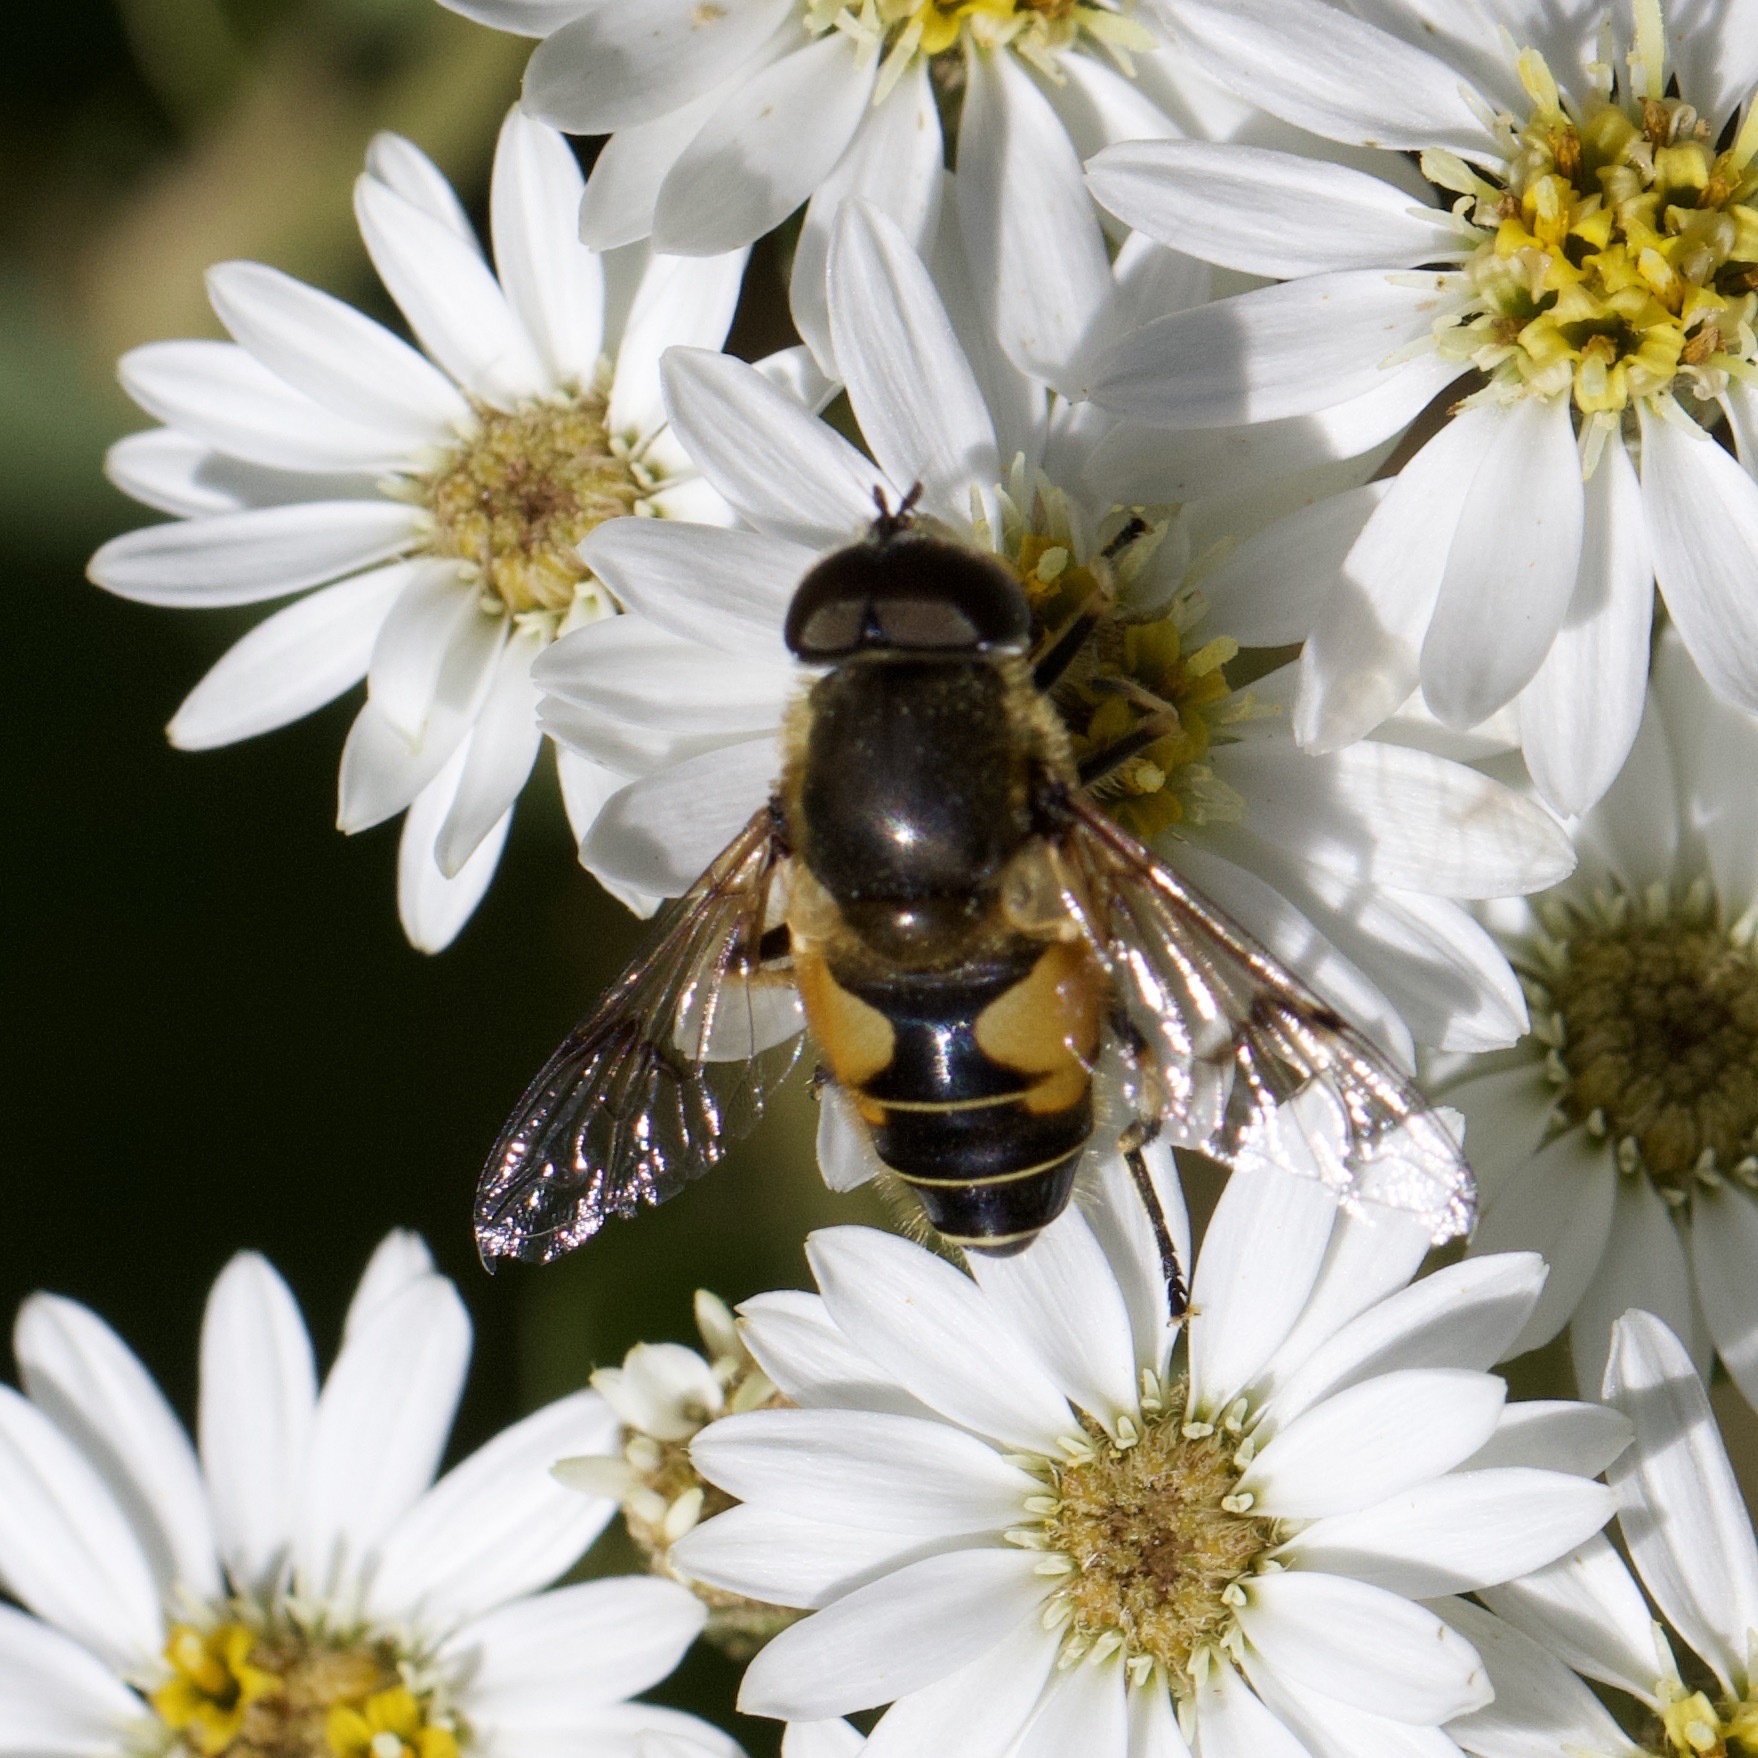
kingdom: Animalia
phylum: Arthropoda
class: Insecta
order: Diptera
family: Syrphidae
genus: Cheilosia
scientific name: Cheilosia morio
